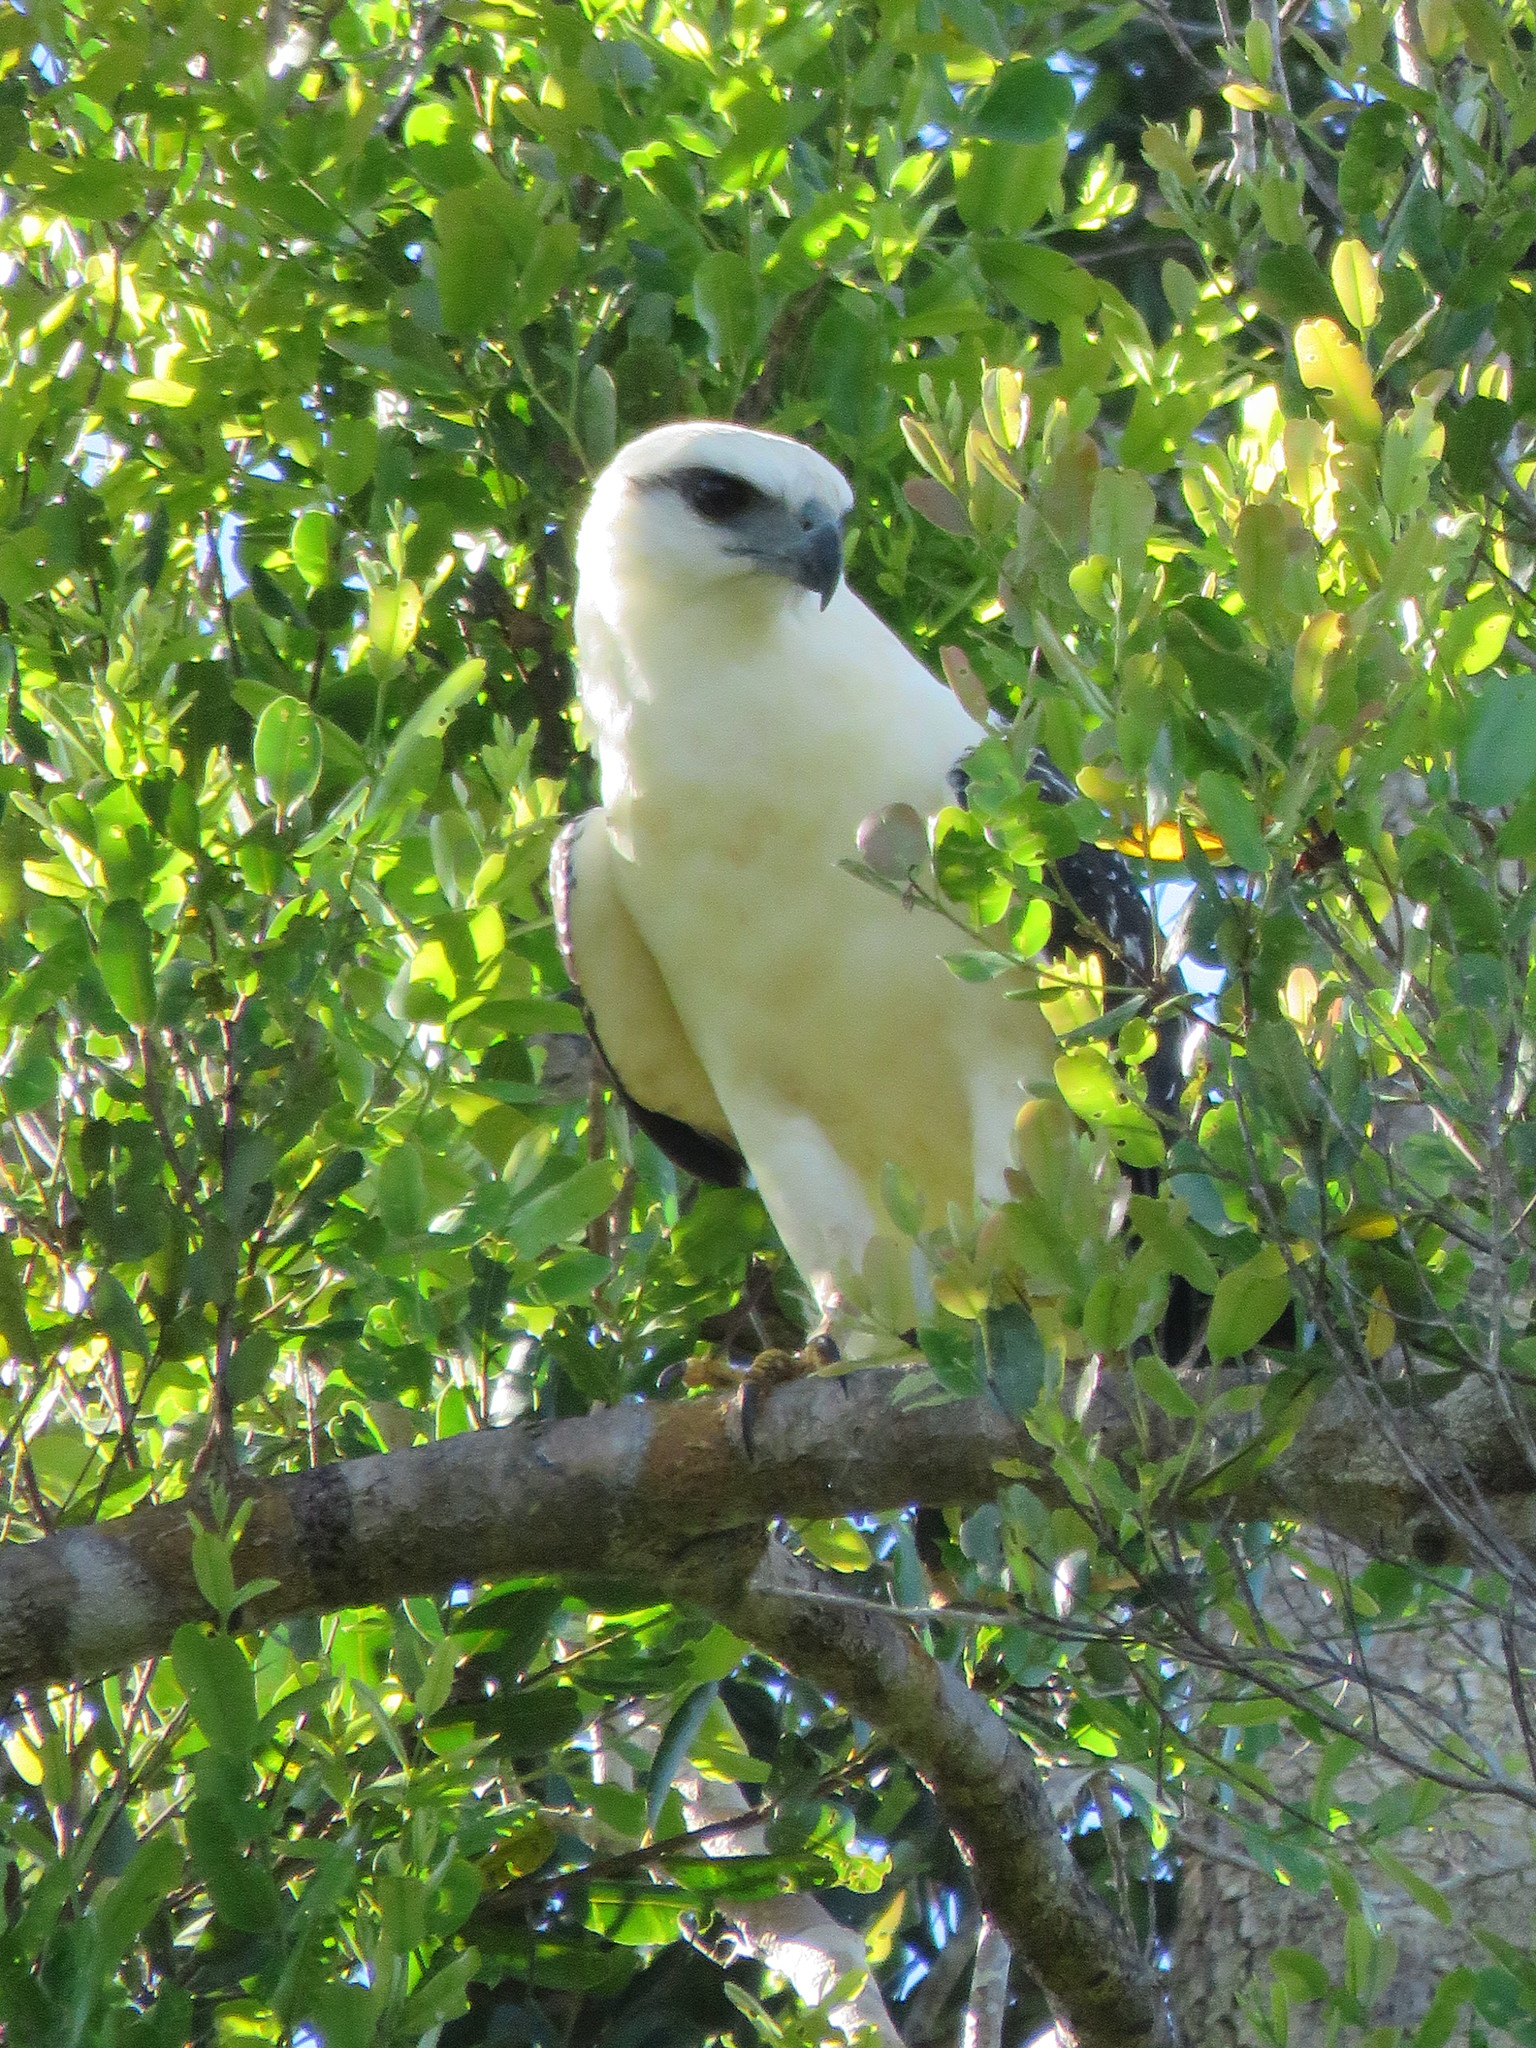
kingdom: Animalia
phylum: Chordata
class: Aves
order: Accipitriformes
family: Accipitridae
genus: Leucopternis
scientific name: Leucopternis albicollis
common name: White hawk
